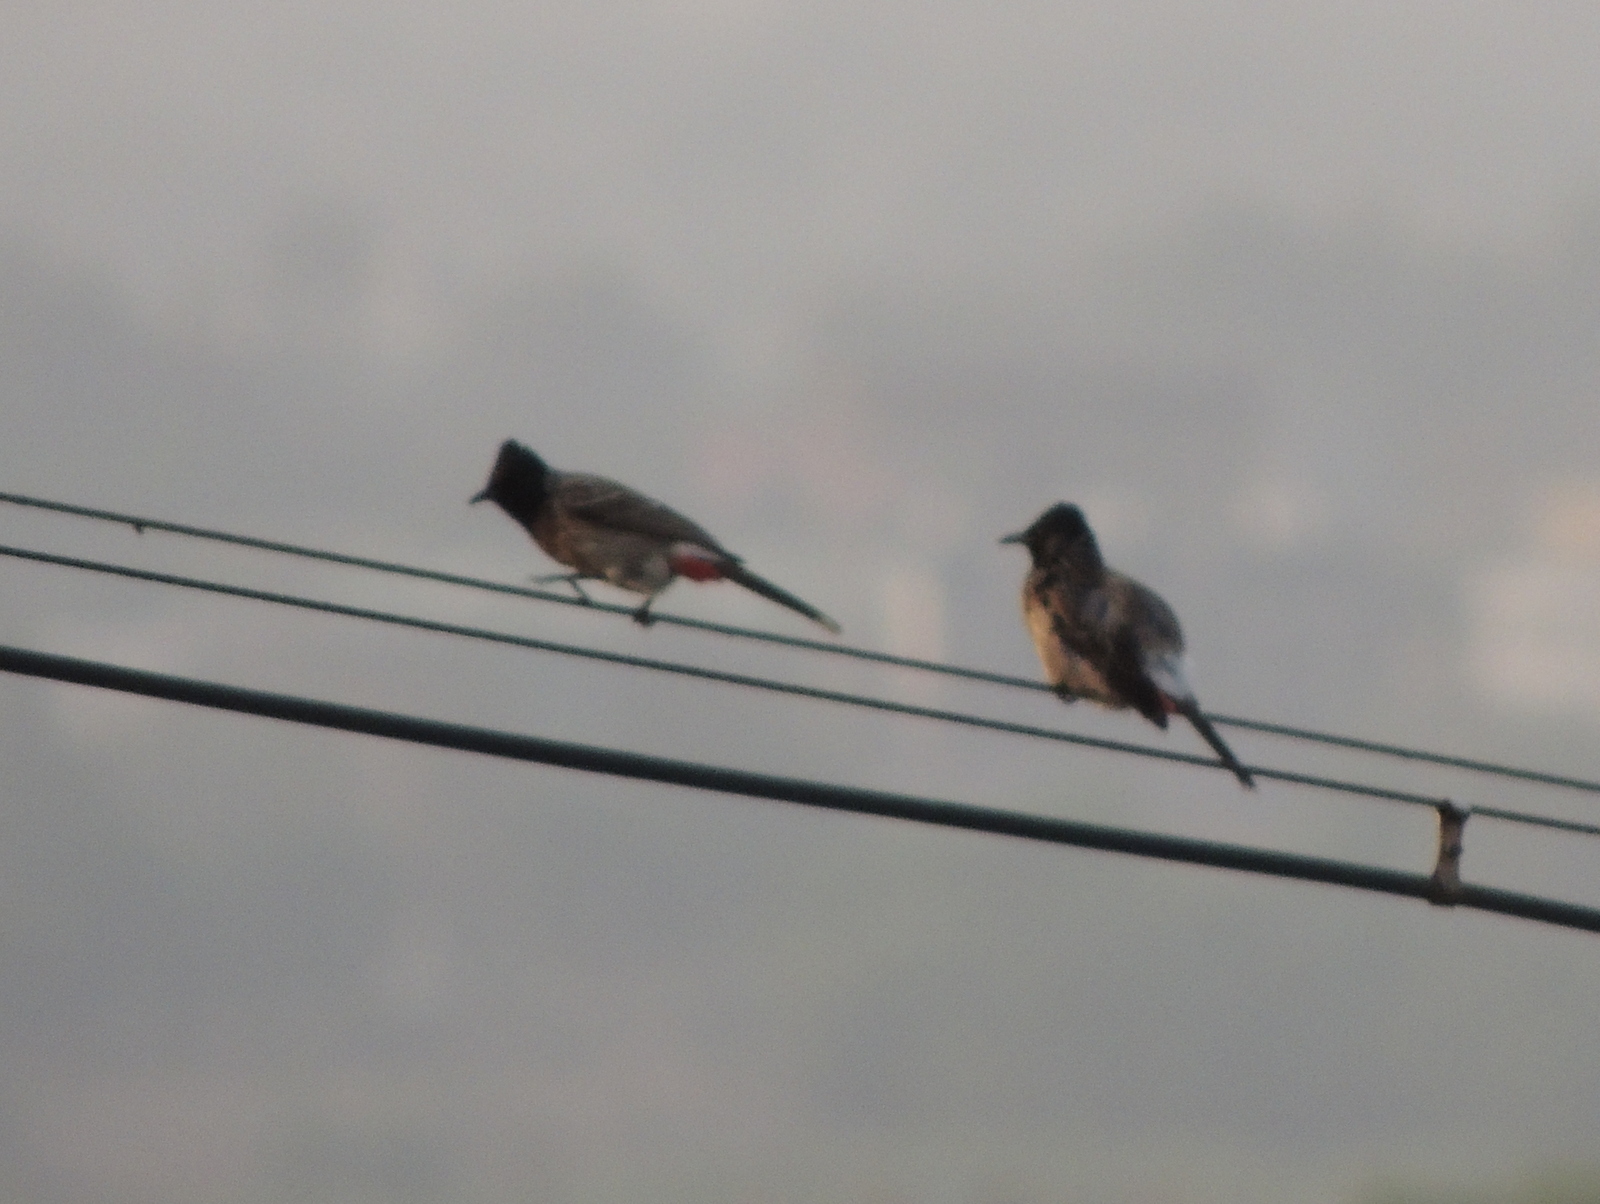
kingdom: Animalia
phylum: Chordata
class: Aves
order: Passeriformes
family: Pycnonotidae
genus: Pycnonotus
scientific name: Pycnonotus cafer
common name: Red-vented bulbul
